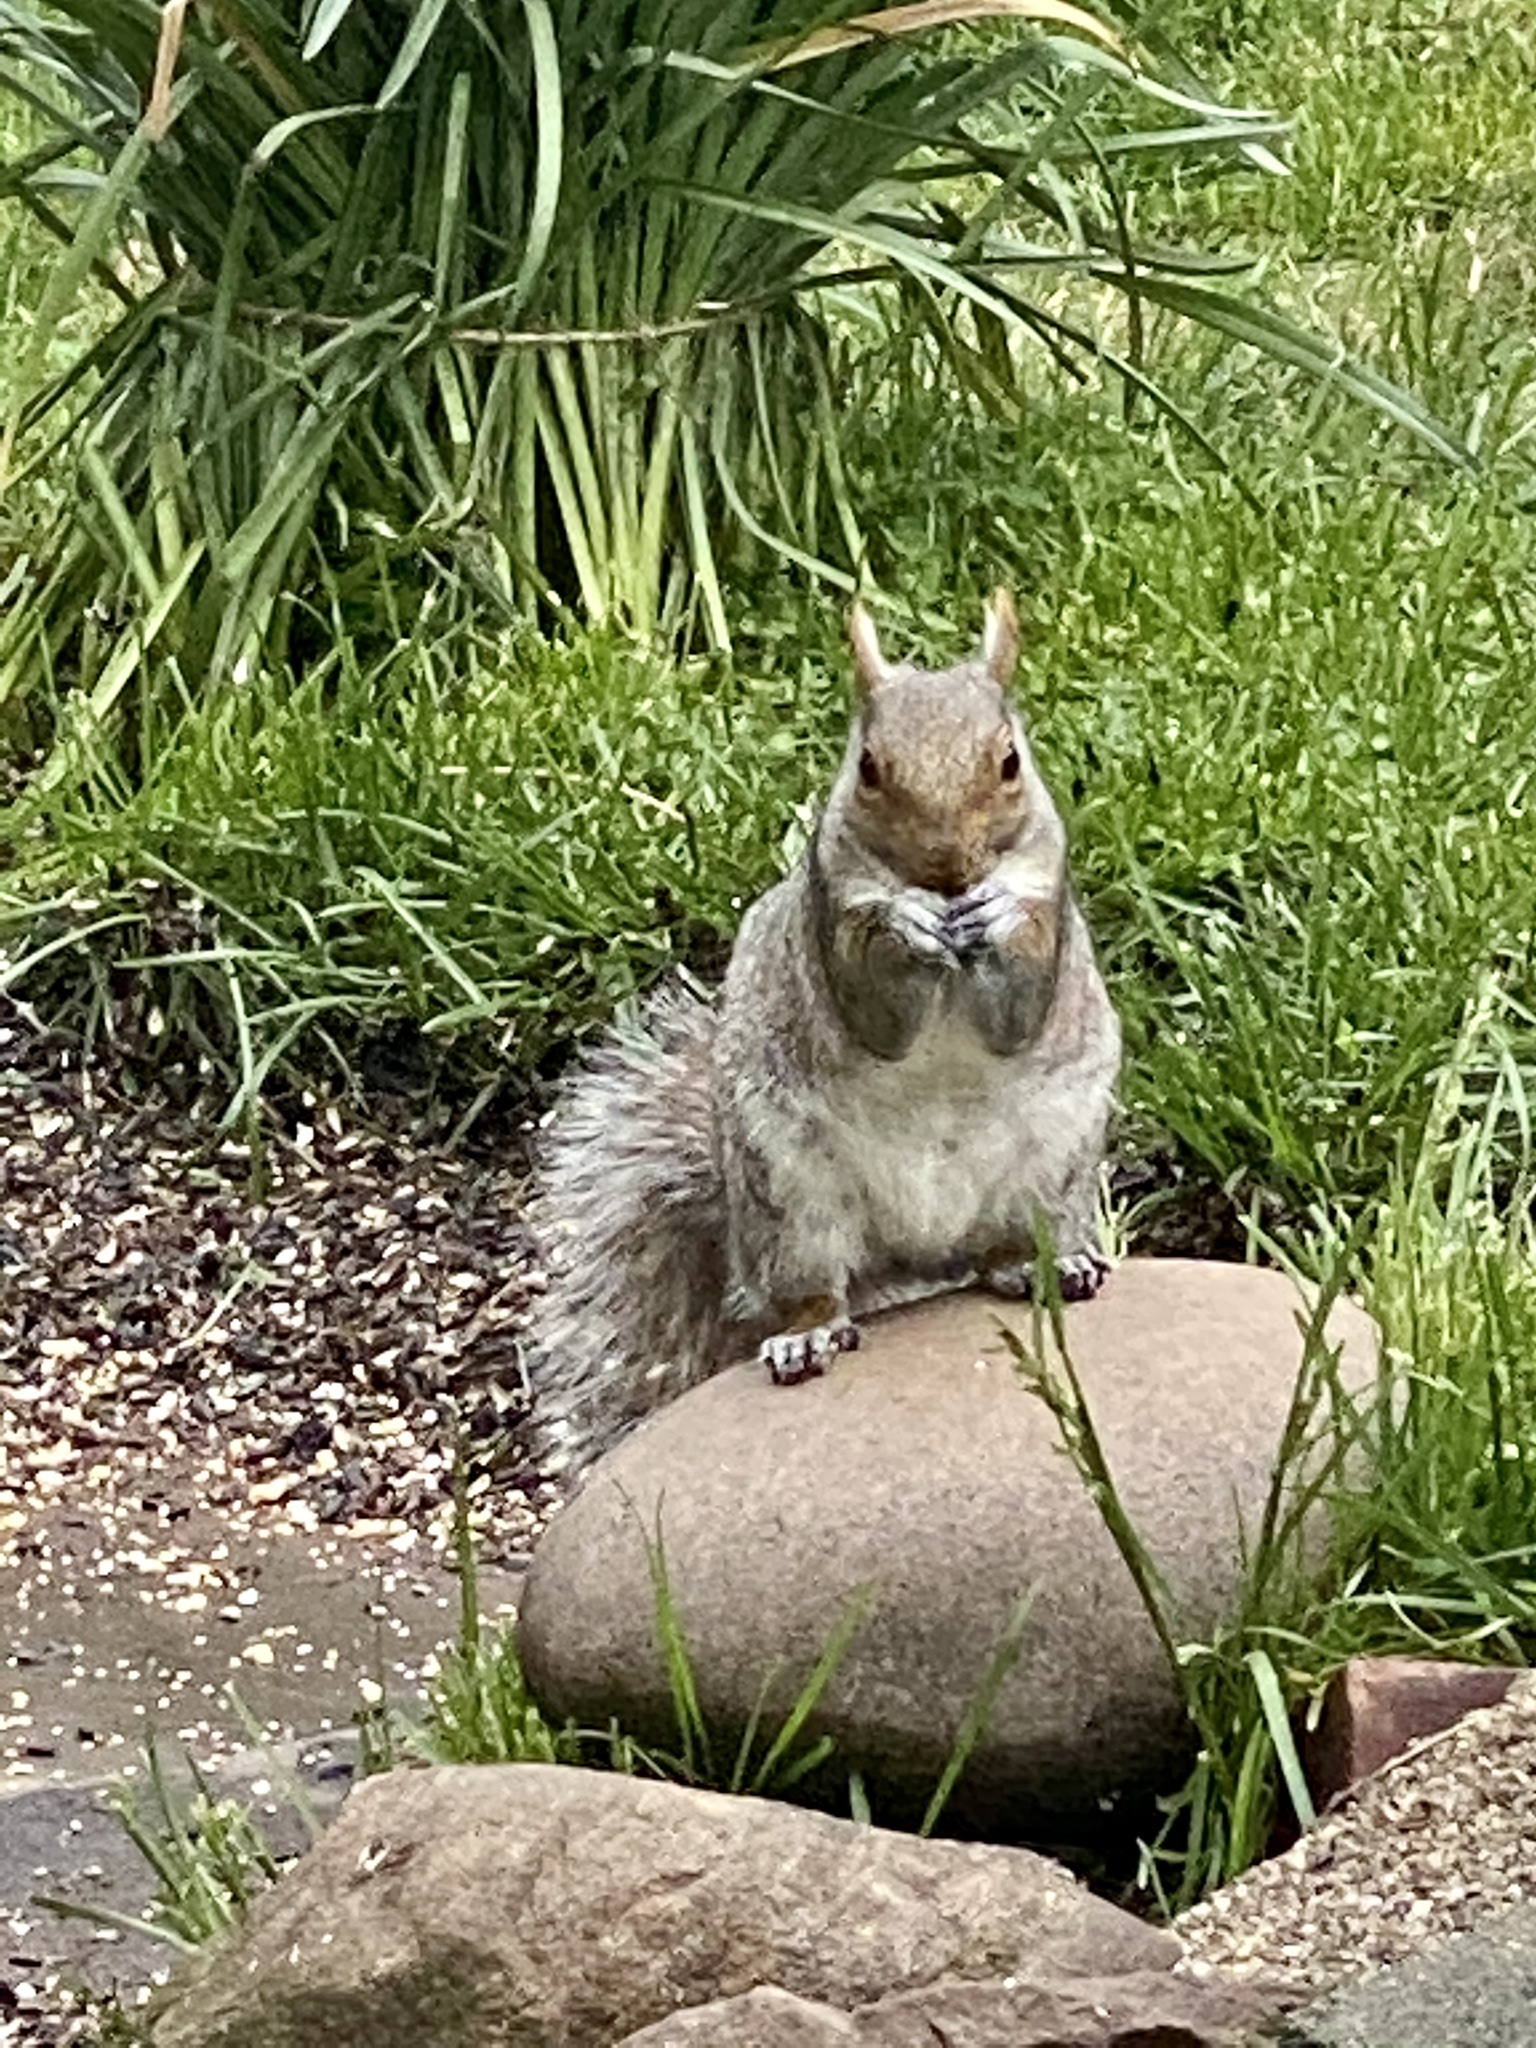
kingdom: Animalia
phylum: Chordata
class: Mammalia
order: Rodentia
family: Sciuridae
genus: Sciurus
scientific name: Sciurus carolinensis
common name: Eastern gray squirrel
